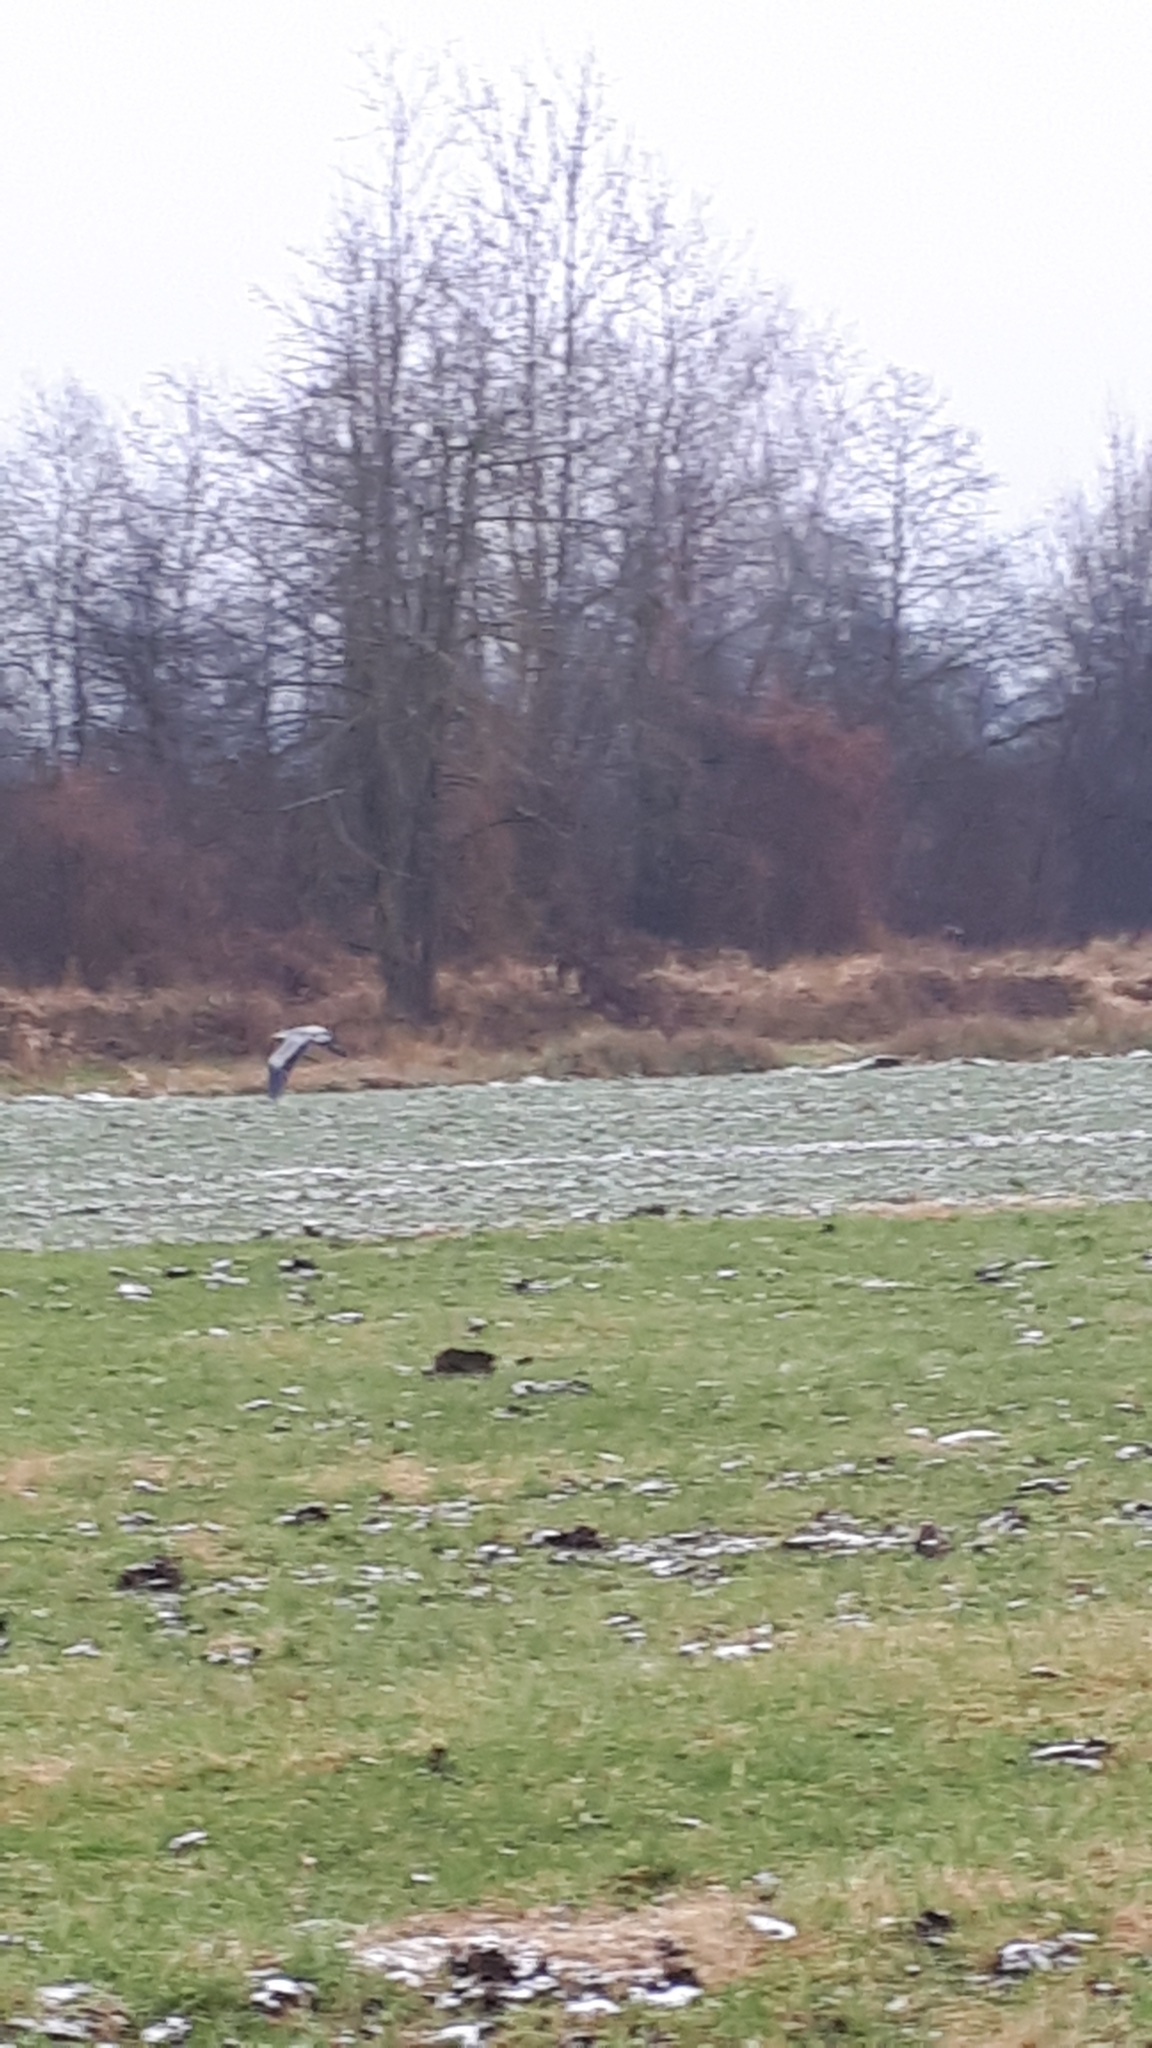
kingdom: Animalia
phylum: Chordata
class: Aves
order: Pelecaniformes
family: Ardeidae
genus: Ardea
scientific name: Ardea cinerea
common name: Grey heron
